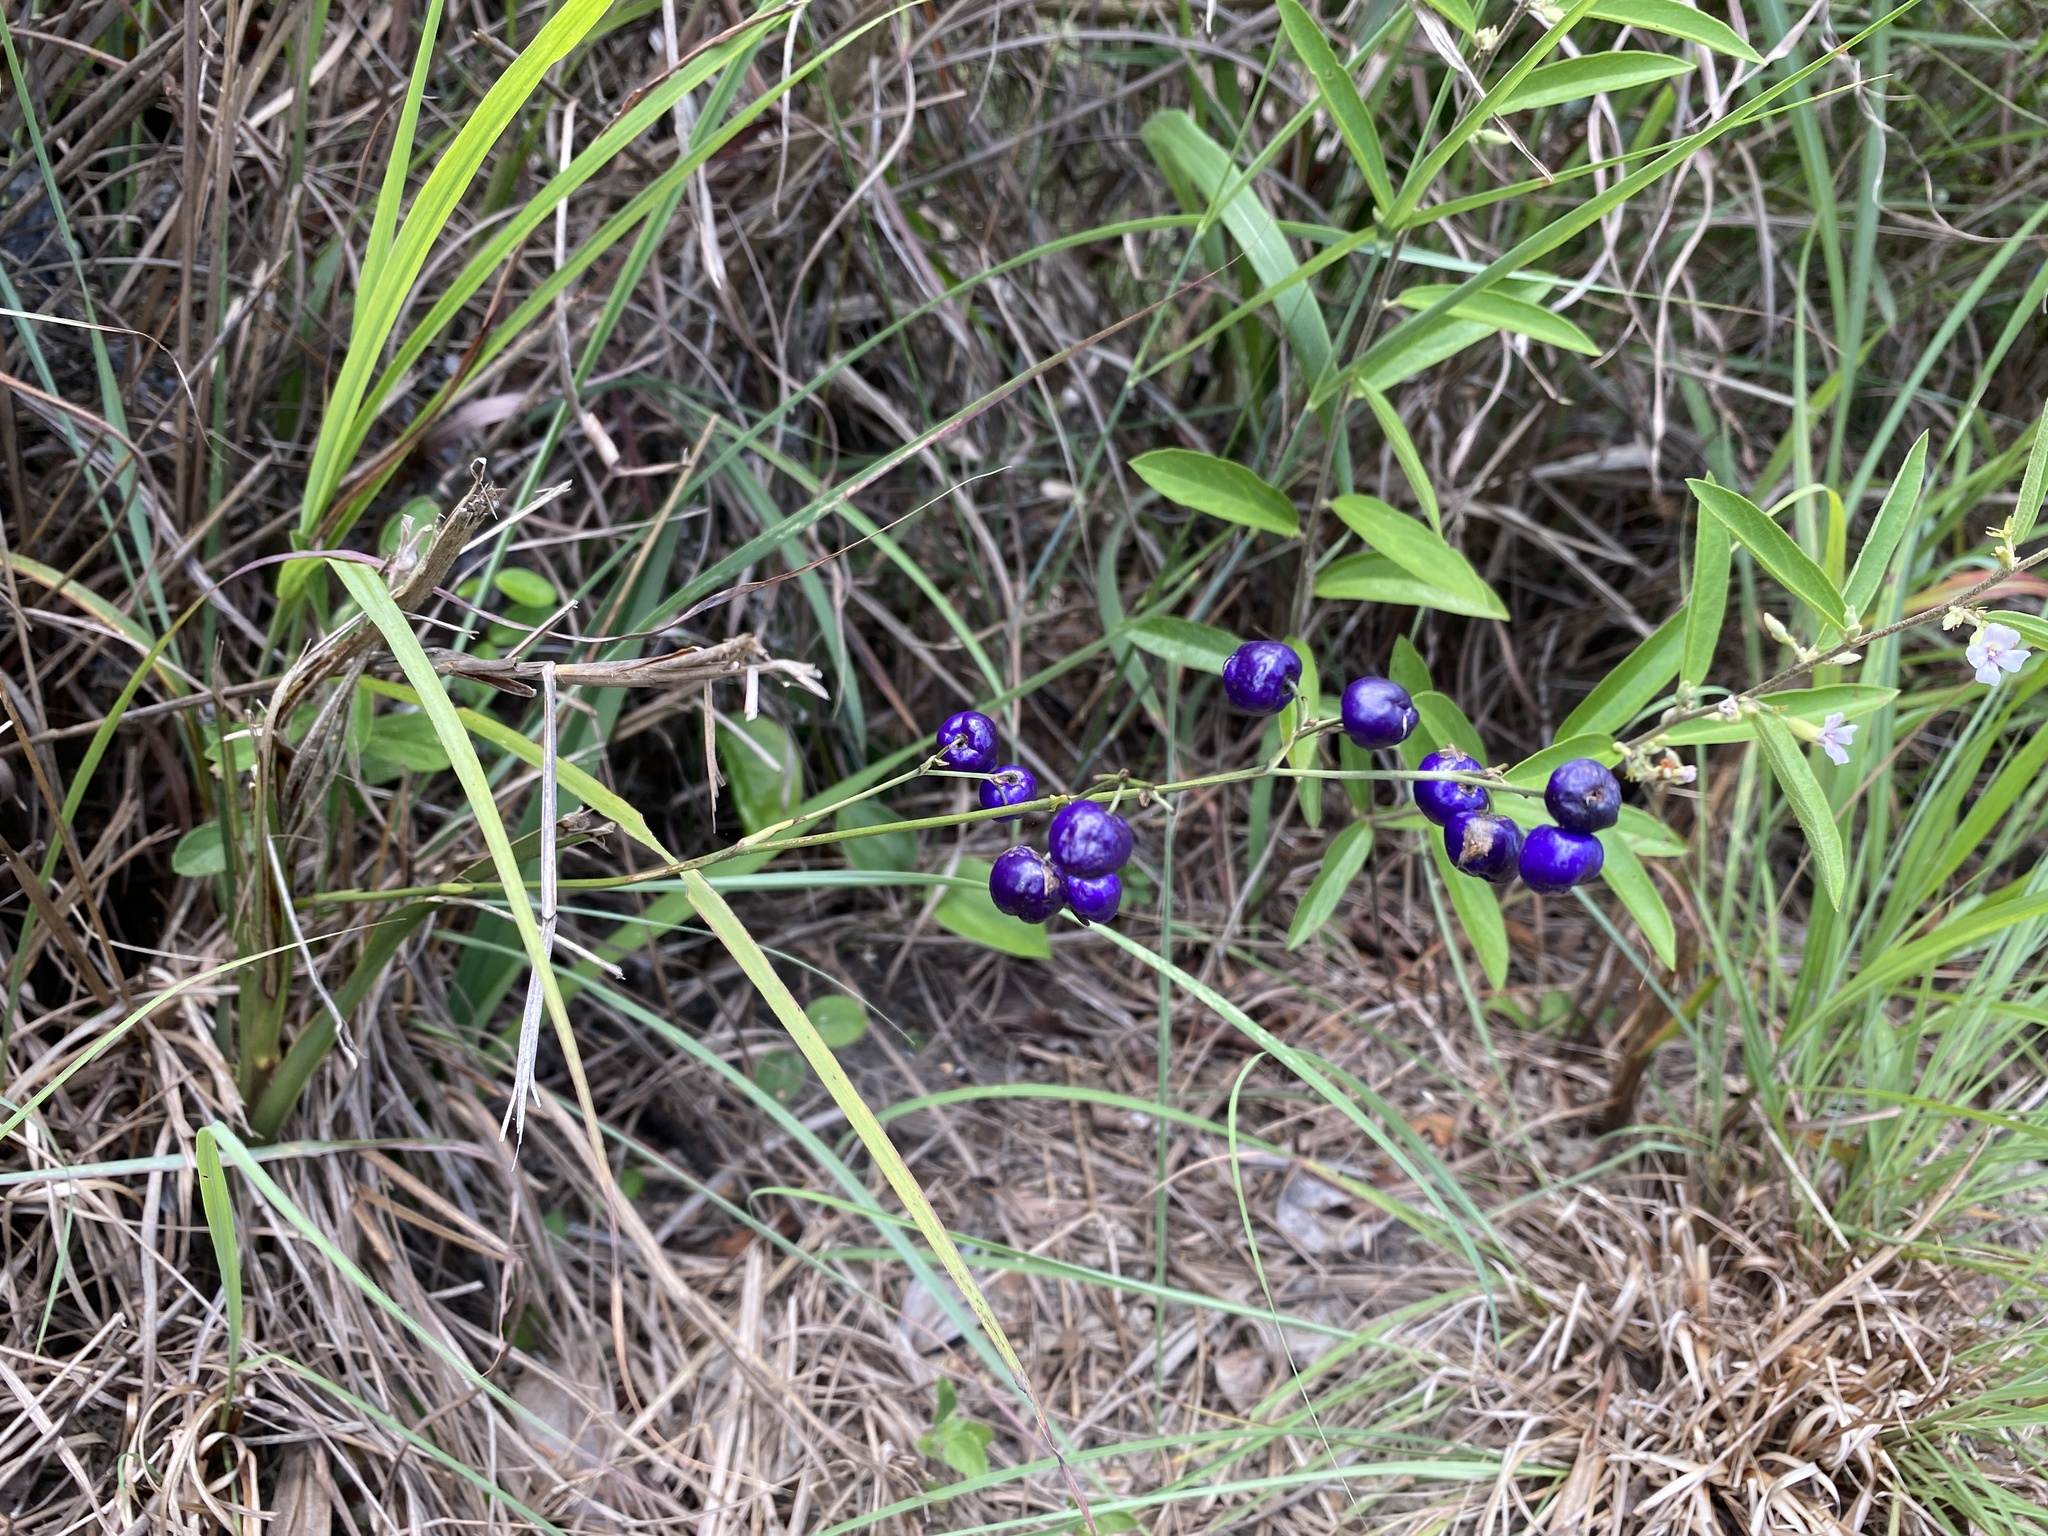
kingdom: Plantae
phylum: Tracheophyta
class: Liliopsida
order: Asparagales
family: Asphodelaceae
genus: Dianella
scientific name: Dianella ensifolia
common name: New zealand lilyplant
